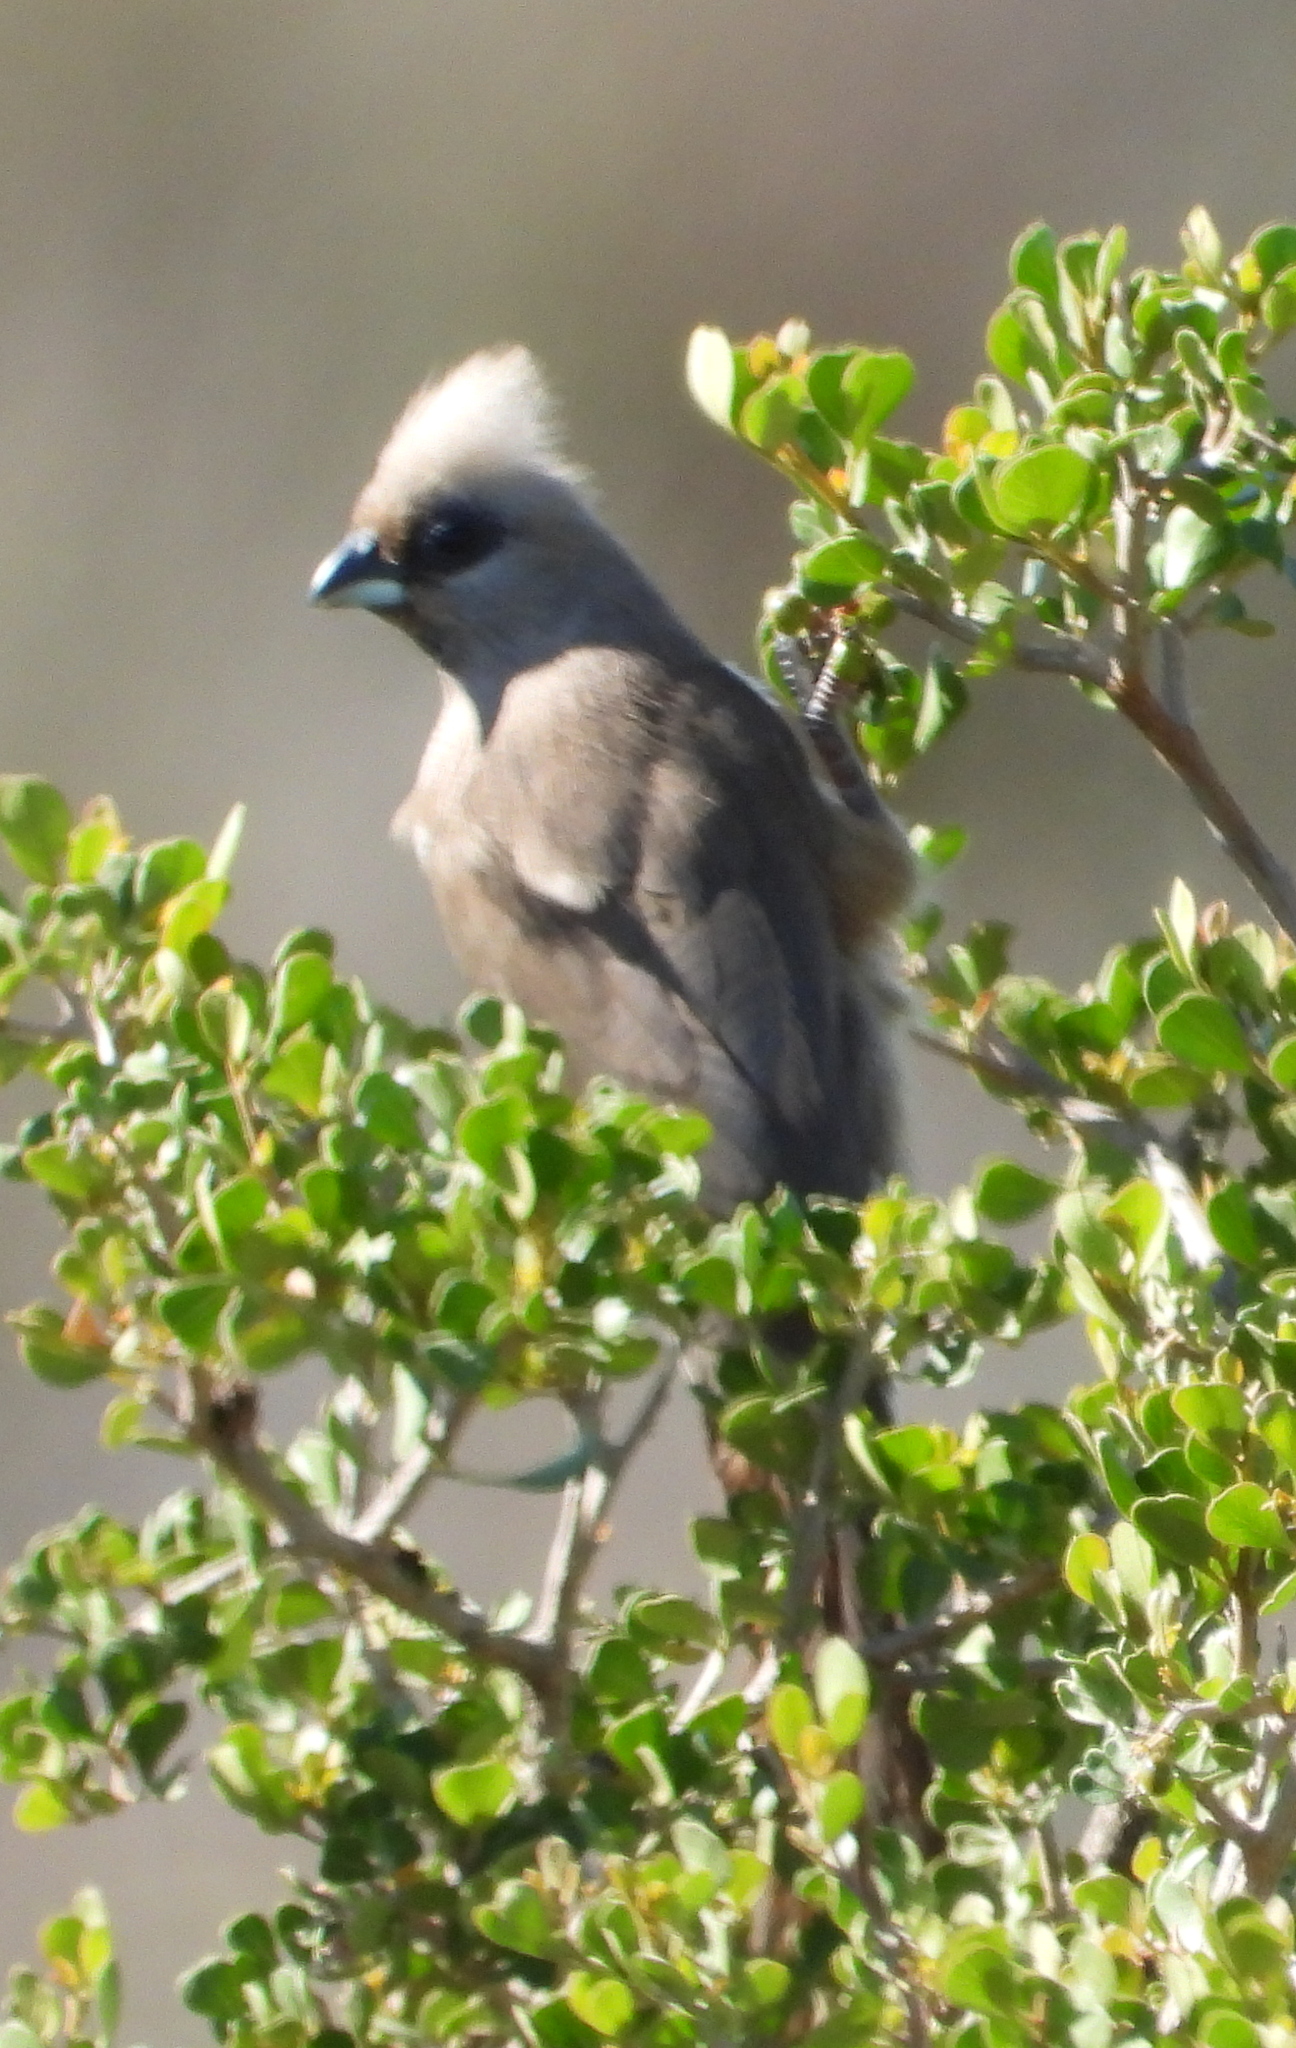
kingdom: Animalia
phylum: Chordata
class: Aves
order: Coliiformes
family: Coliidae
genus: Colius
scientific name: Colius striatus
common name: Speckled mousebird
